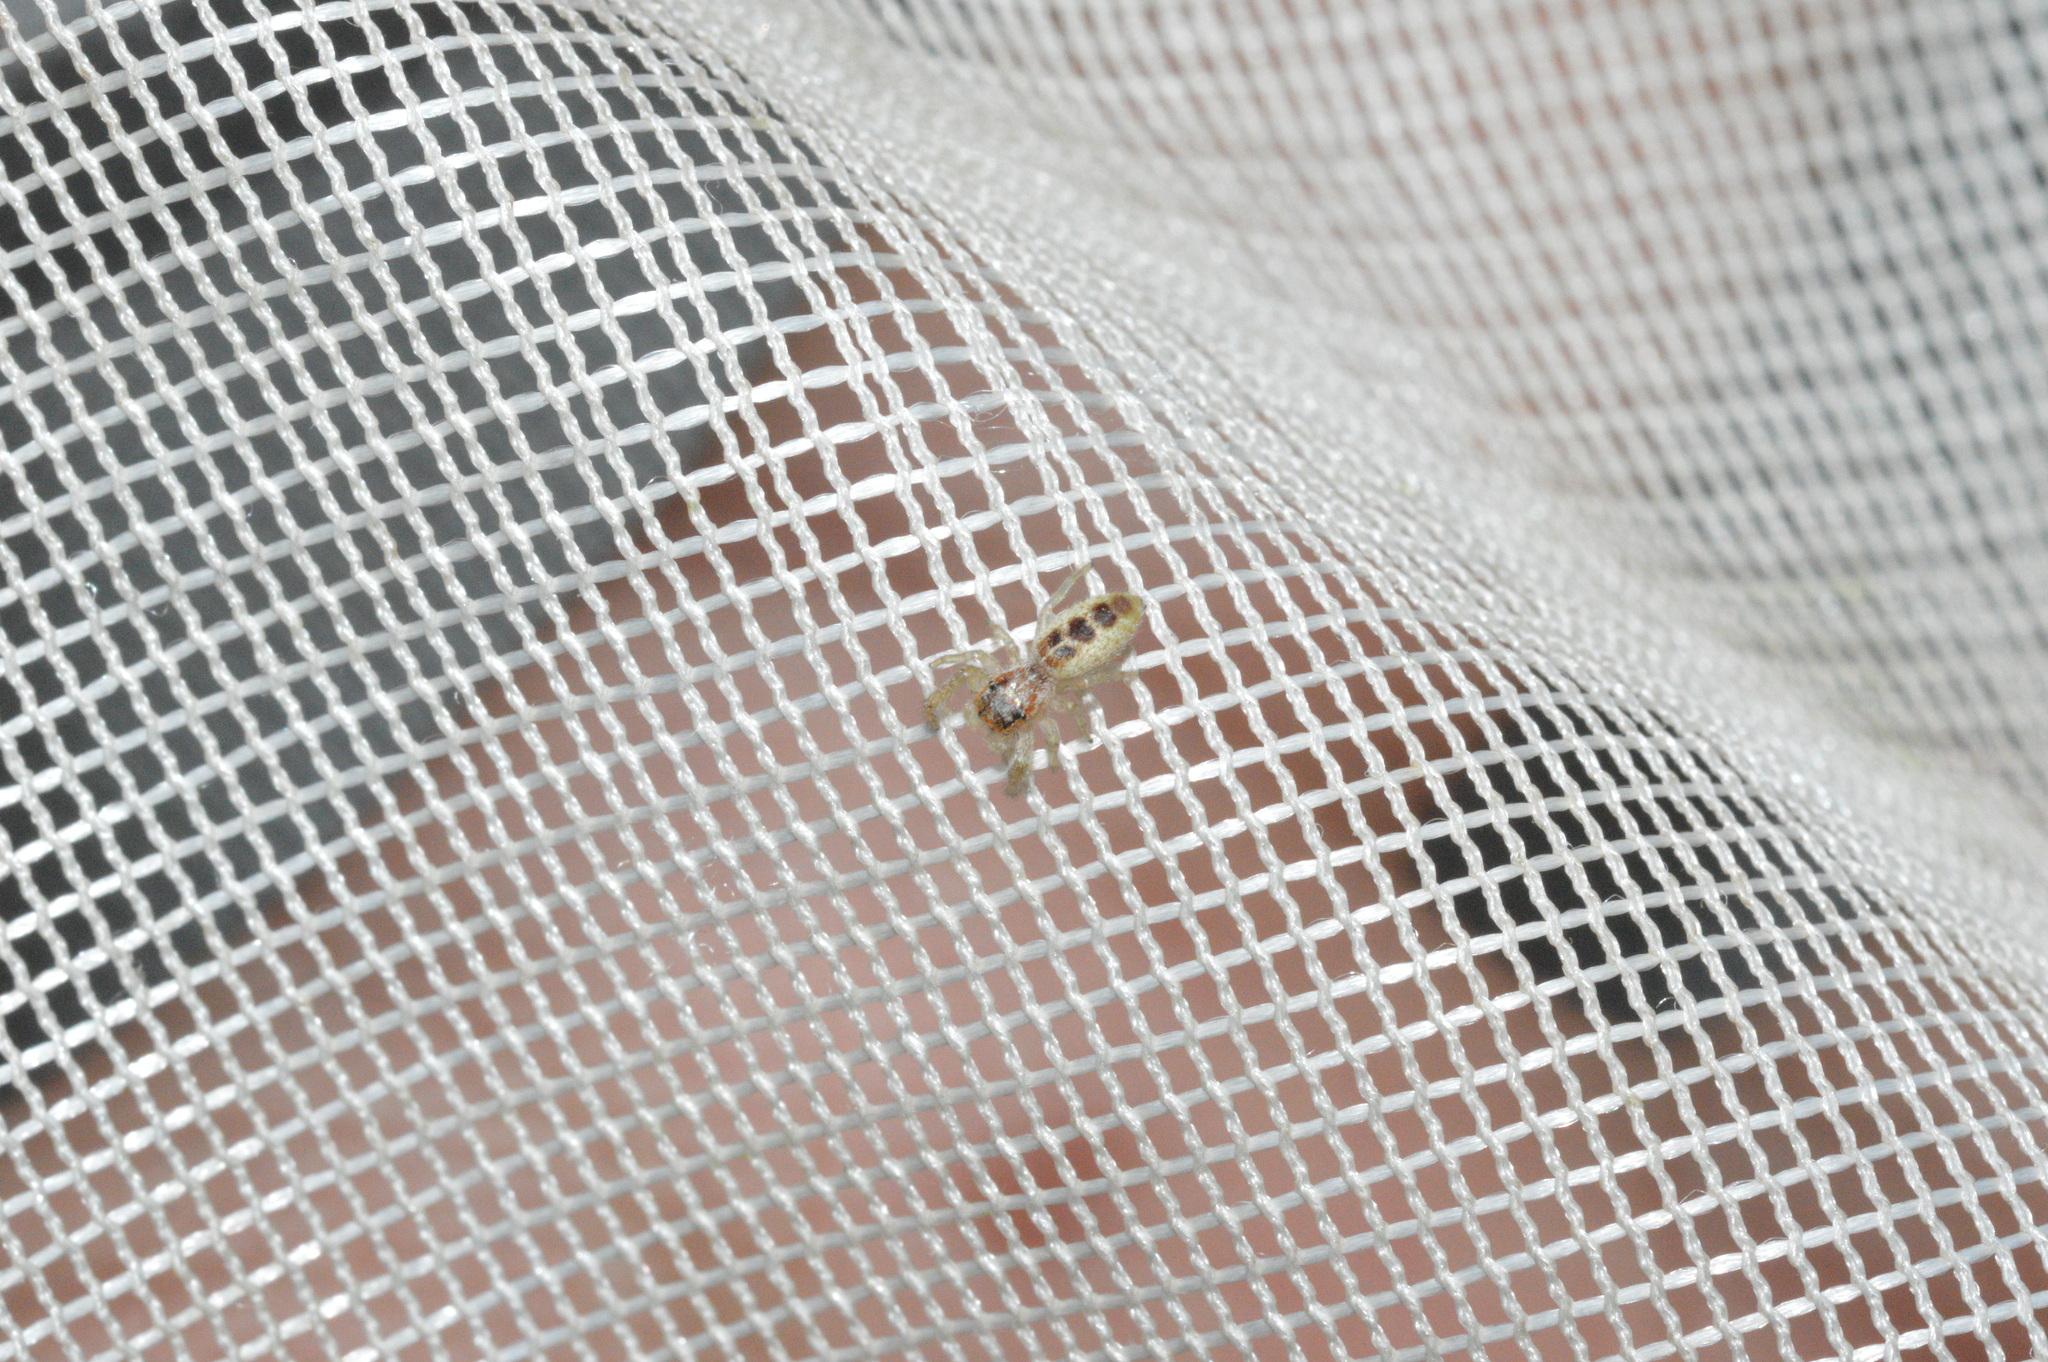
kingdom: Animalia
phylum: Arthropoda
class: Arachnida
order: Araneae
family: Salticidae
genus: Hentzia
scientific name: Hentzia mitrata
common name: White-jawed jumping spider
